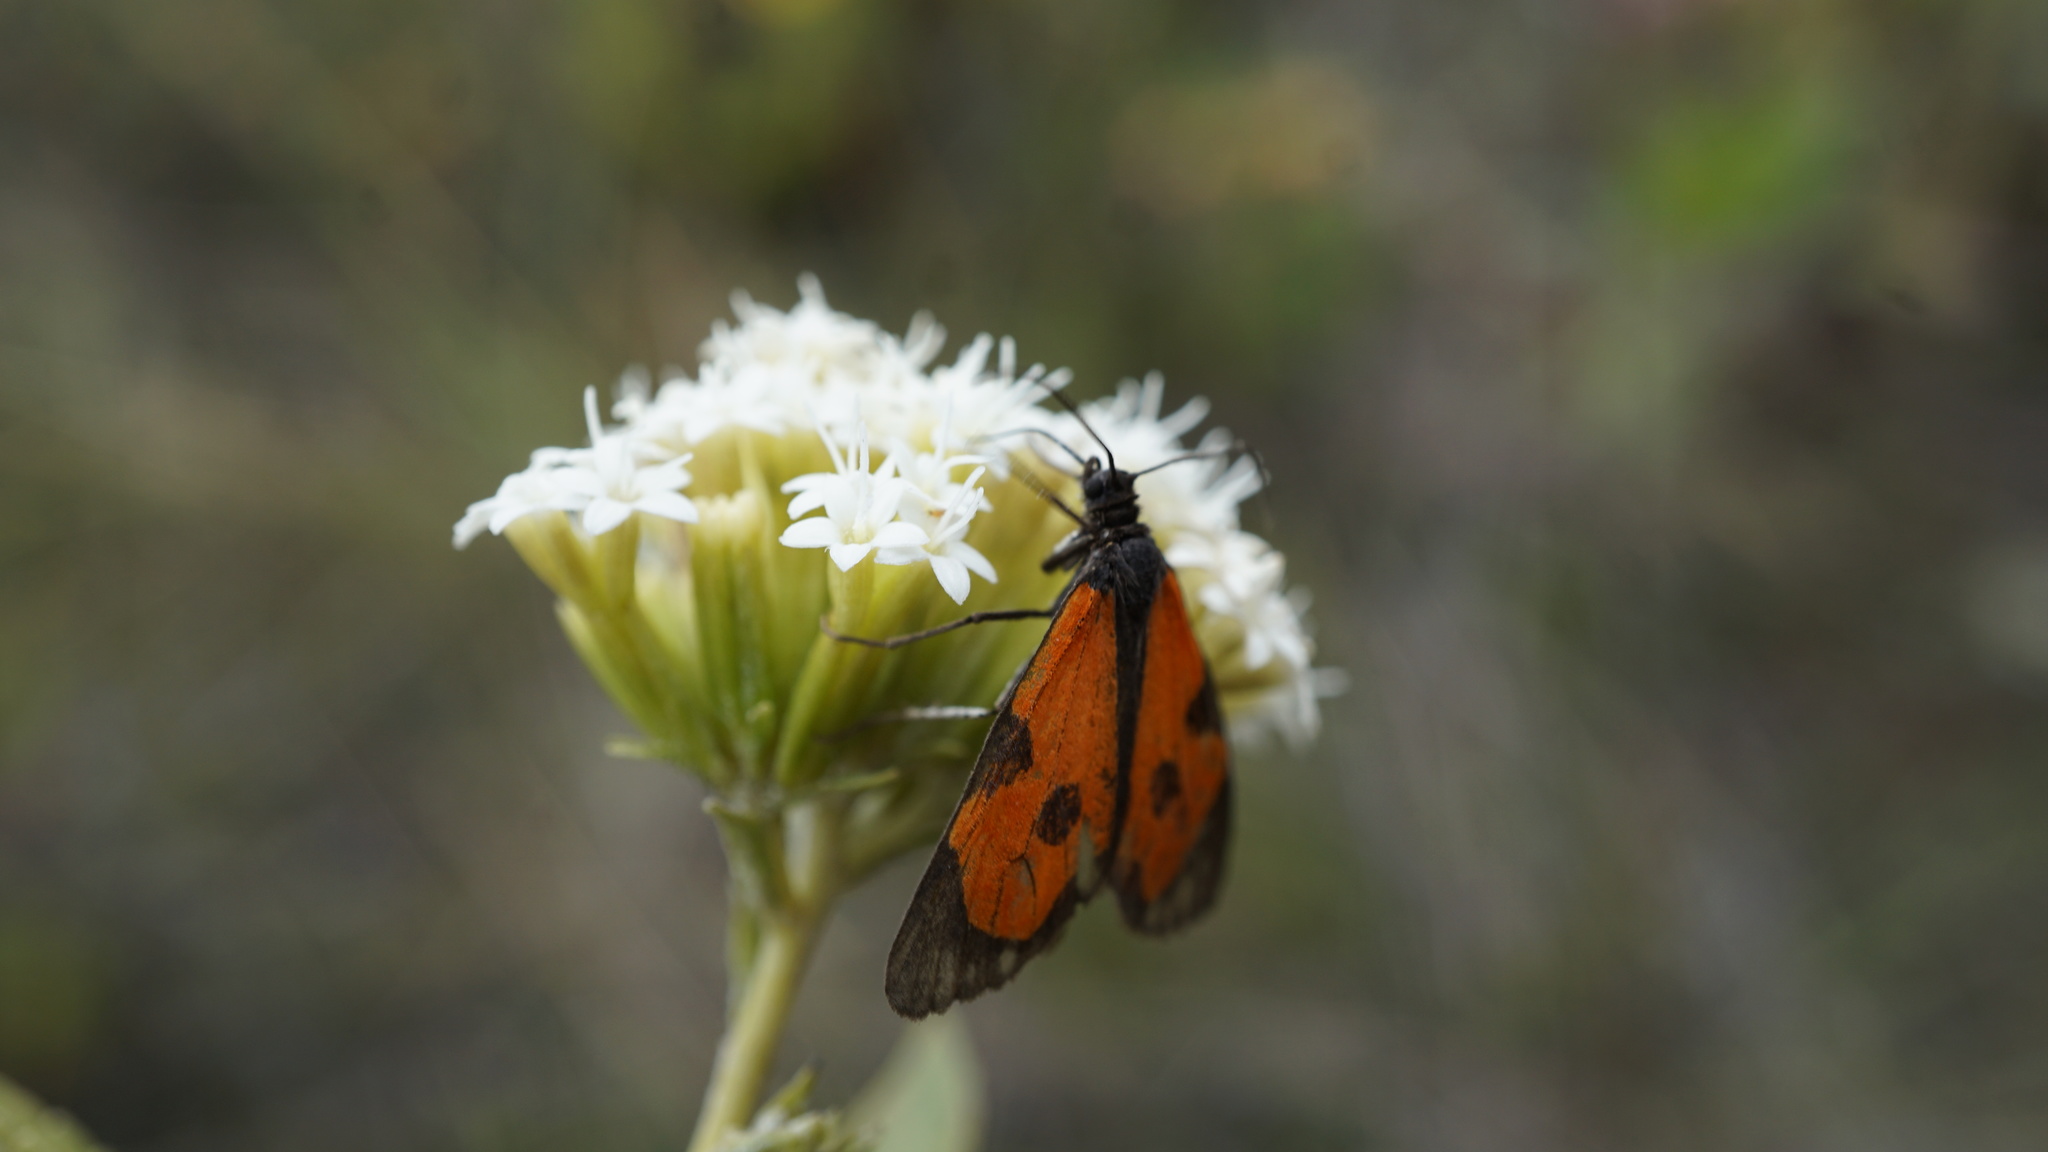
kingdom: Animalia
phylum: Arthropoda
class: Insecta
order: Lepidoptera
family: Geometridae
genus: Eudule
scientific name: Eudule bimacula
